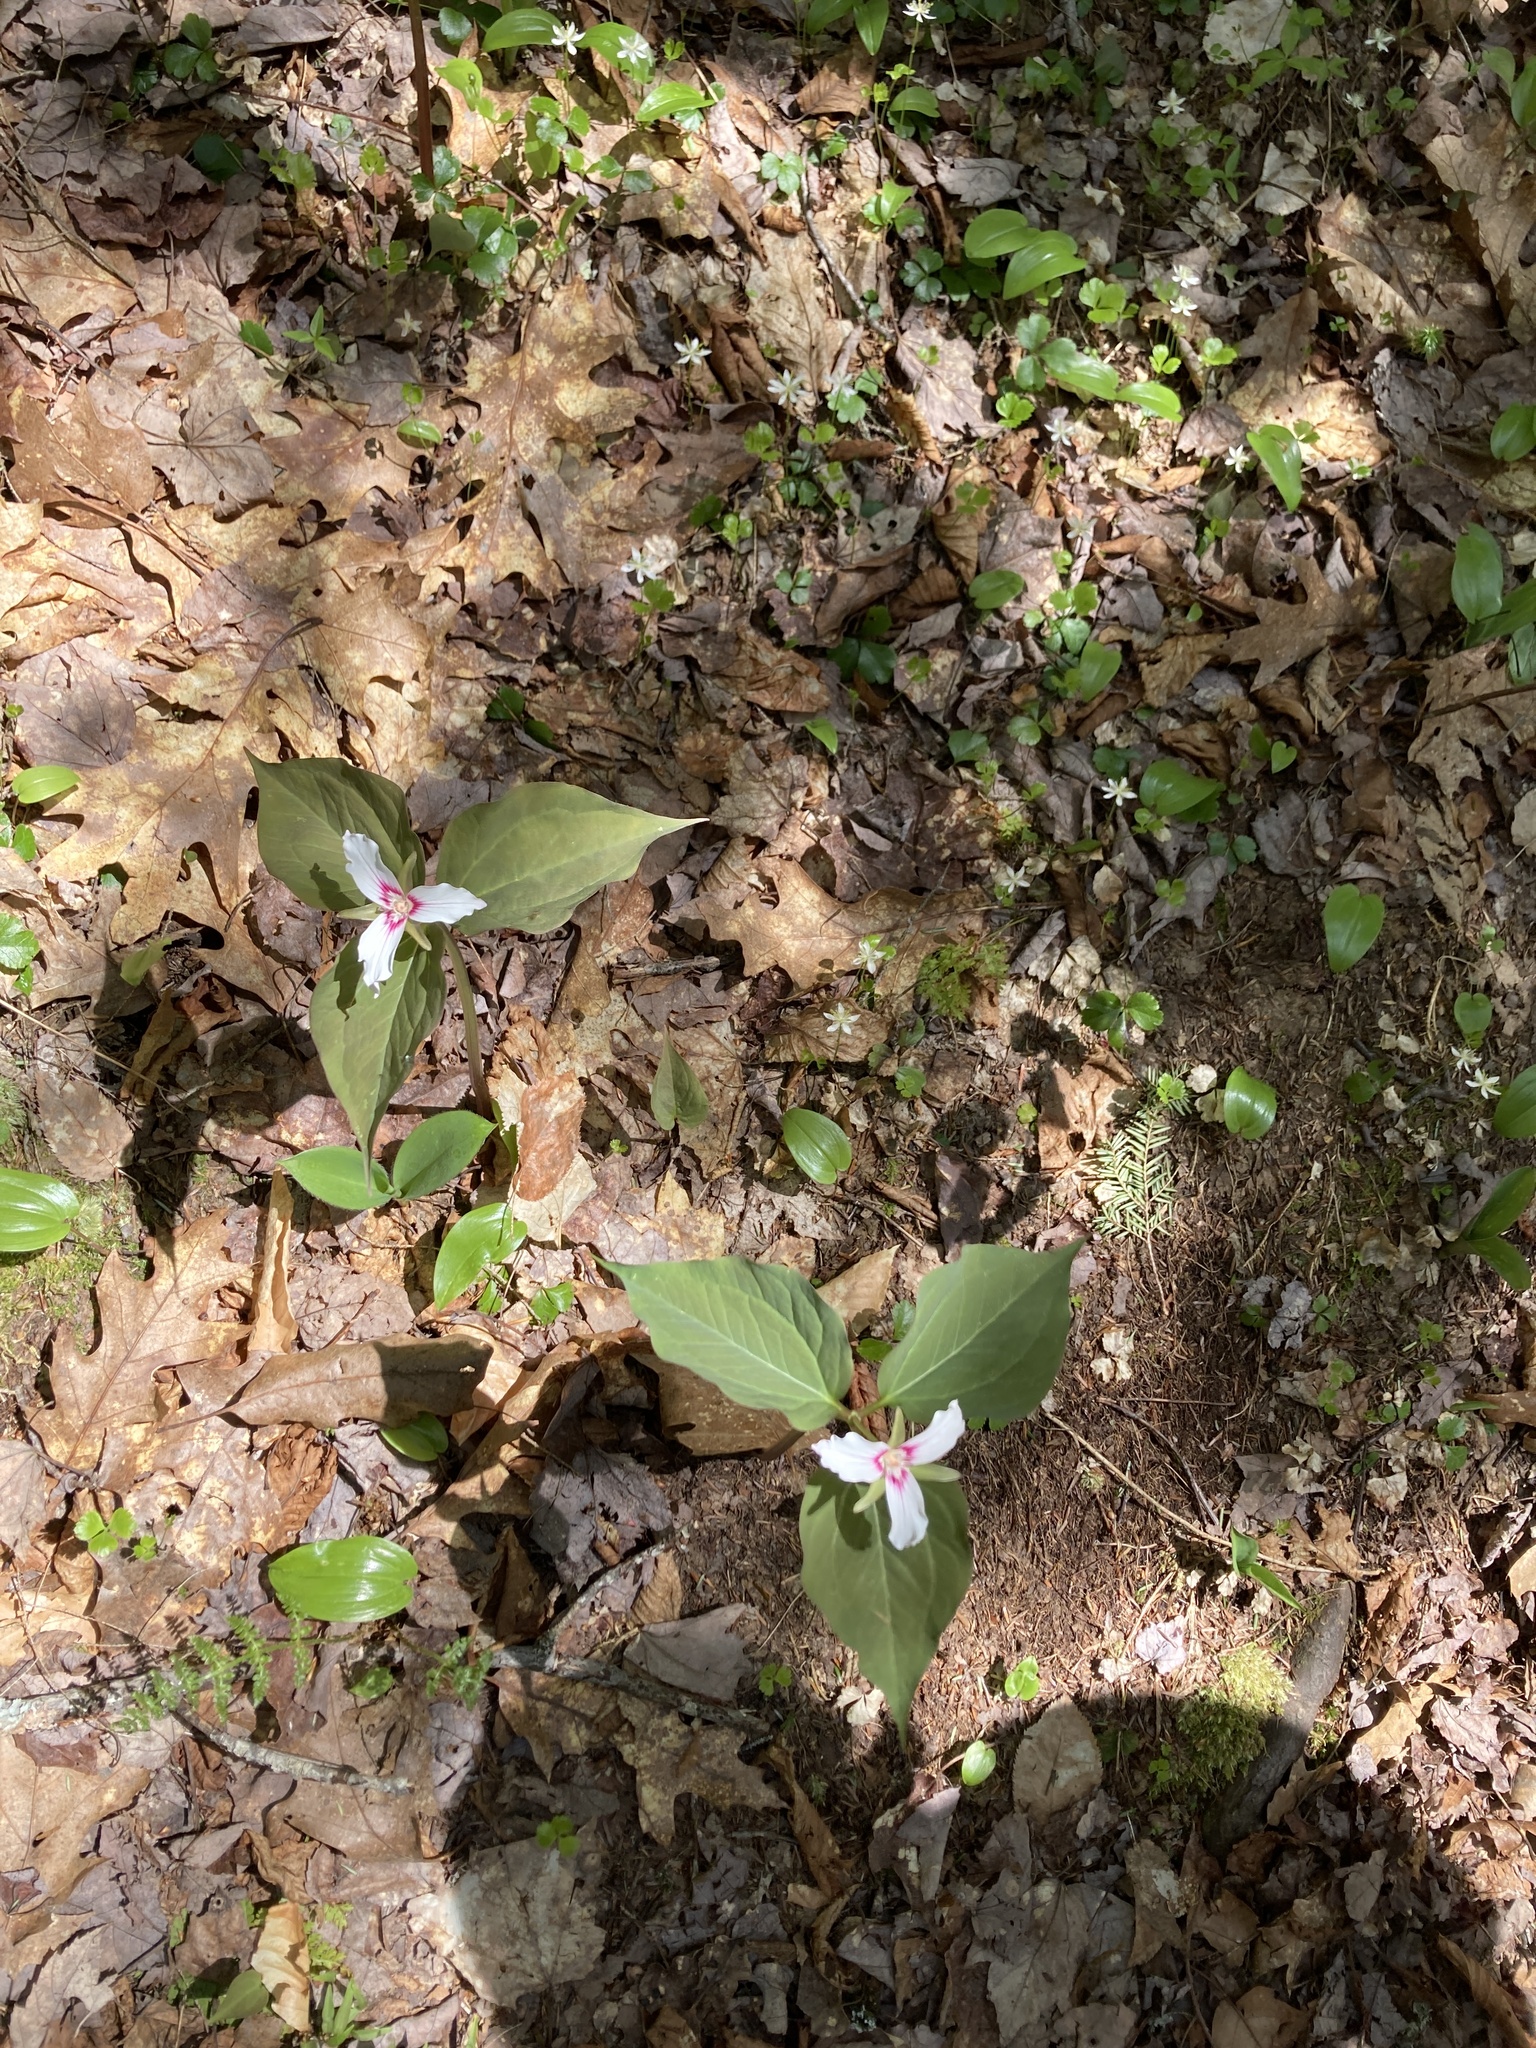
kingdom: Plantae
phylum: Tracheophyta
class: Liliopsida
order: Liliales
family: Melanthiaceae
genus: Trillium
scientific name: Trillium undulatum
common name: Paint trillium
